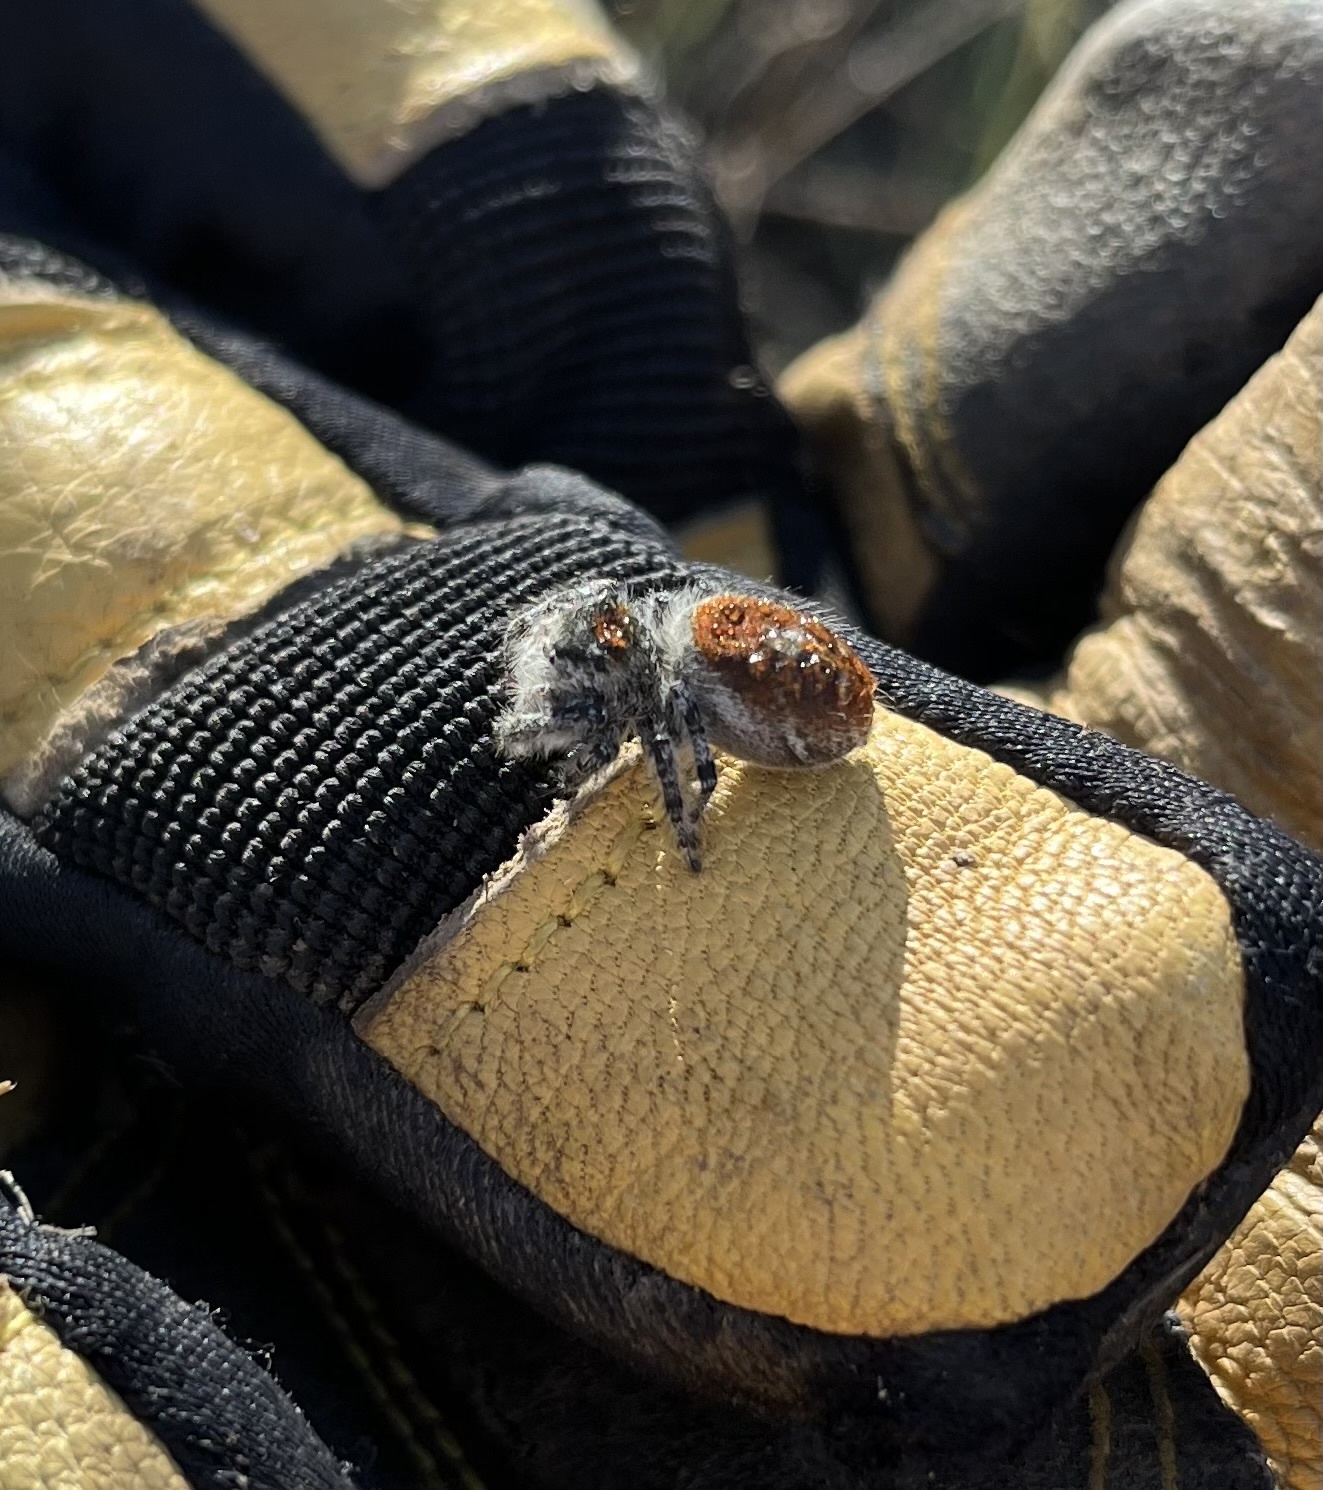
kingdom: Animalia
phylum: Arthropoda
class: Arachnida
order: Araneae
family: Salticidae
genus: Phidippus
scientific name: Phidippus adumbratus
